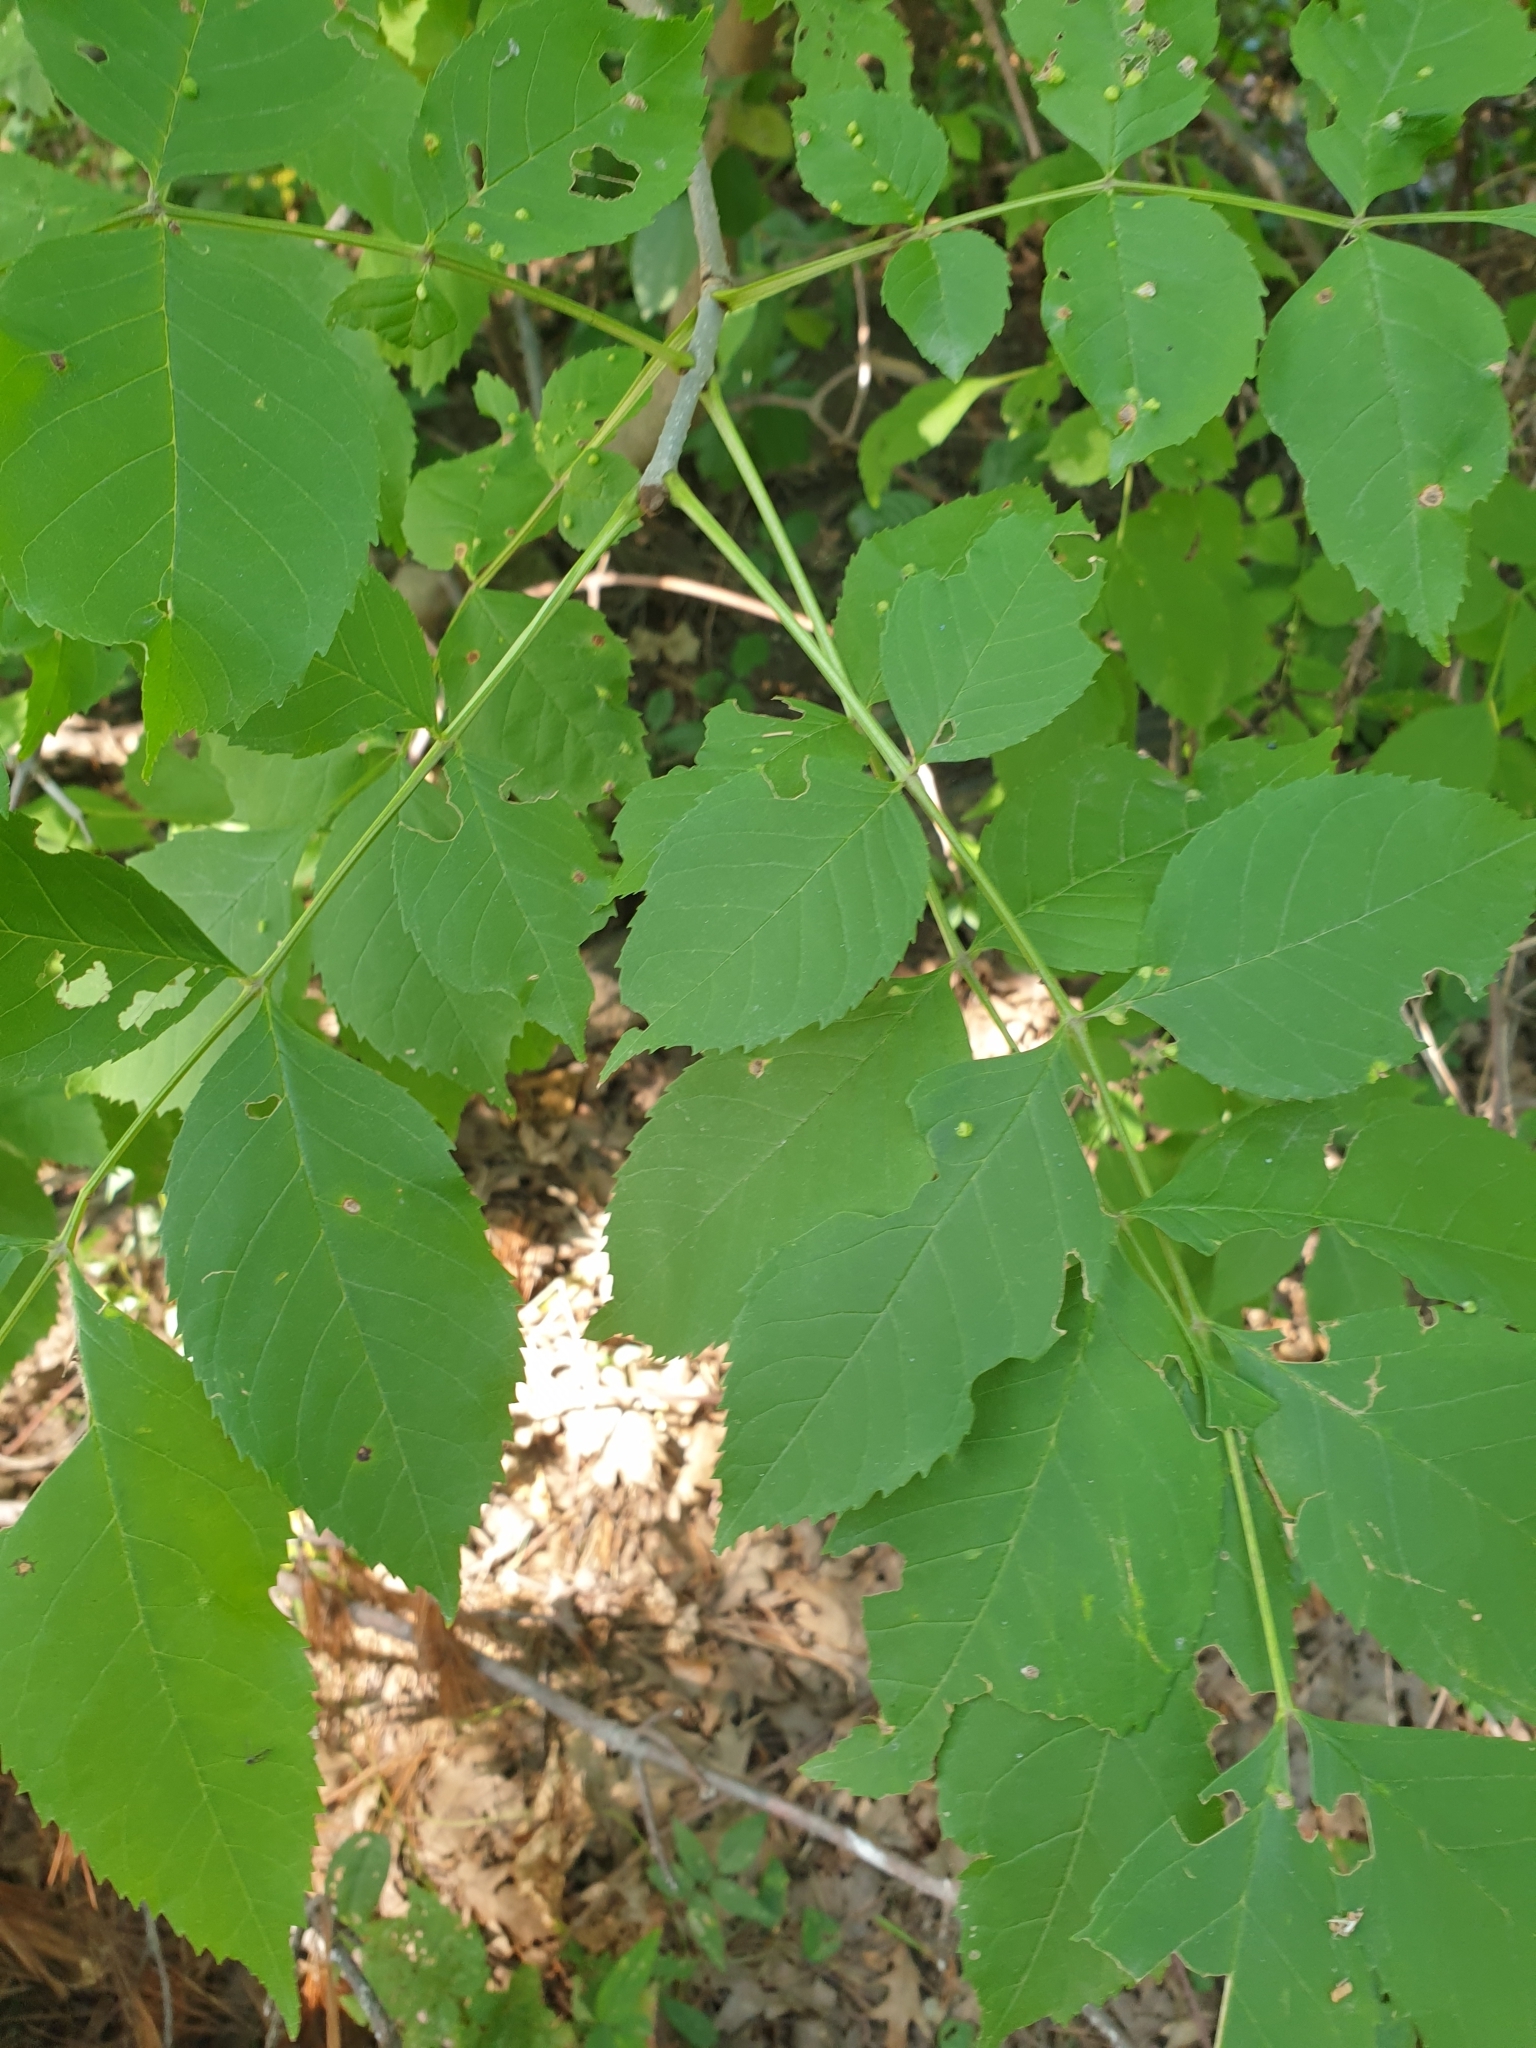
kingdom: Plantae
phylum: Tracheophyta
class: Magnoliopsida
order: Lamiales
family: Oleaceae
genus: Fraxinus
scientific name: Fraxinus pennsylvanica
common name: Green ash
